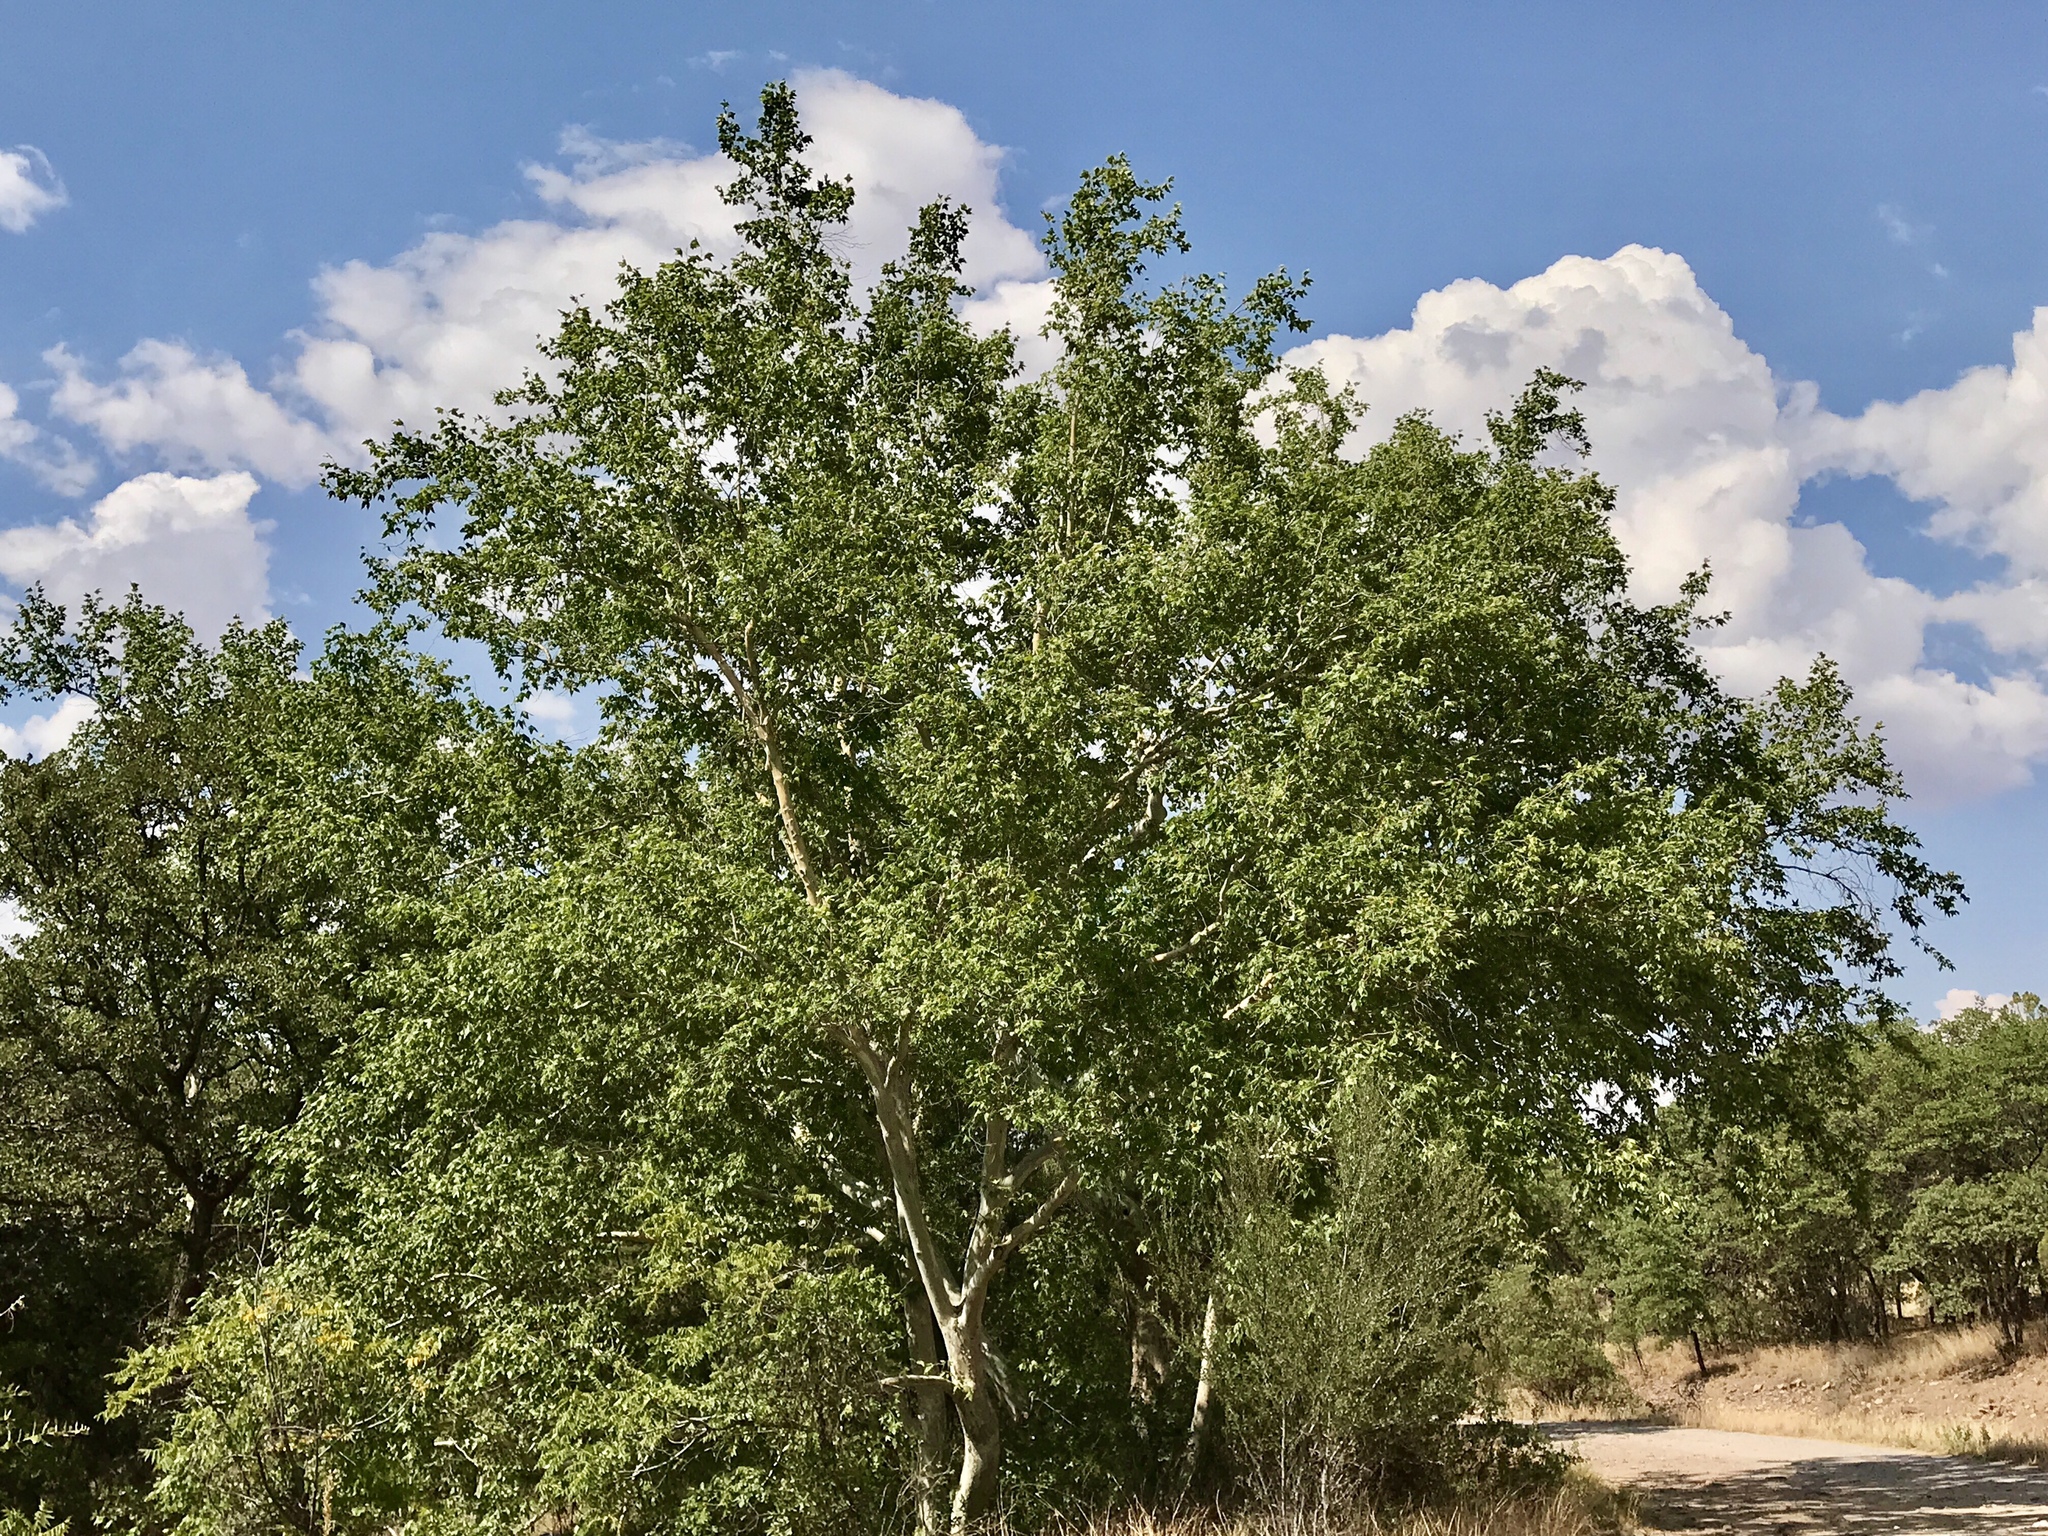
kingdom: Plantae
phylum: Tracheophyta
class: Magnoliopsida
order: Proteales
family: Platanaceae
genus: Platanus
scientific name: Platanus wrightii
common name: Arizona sycamore
